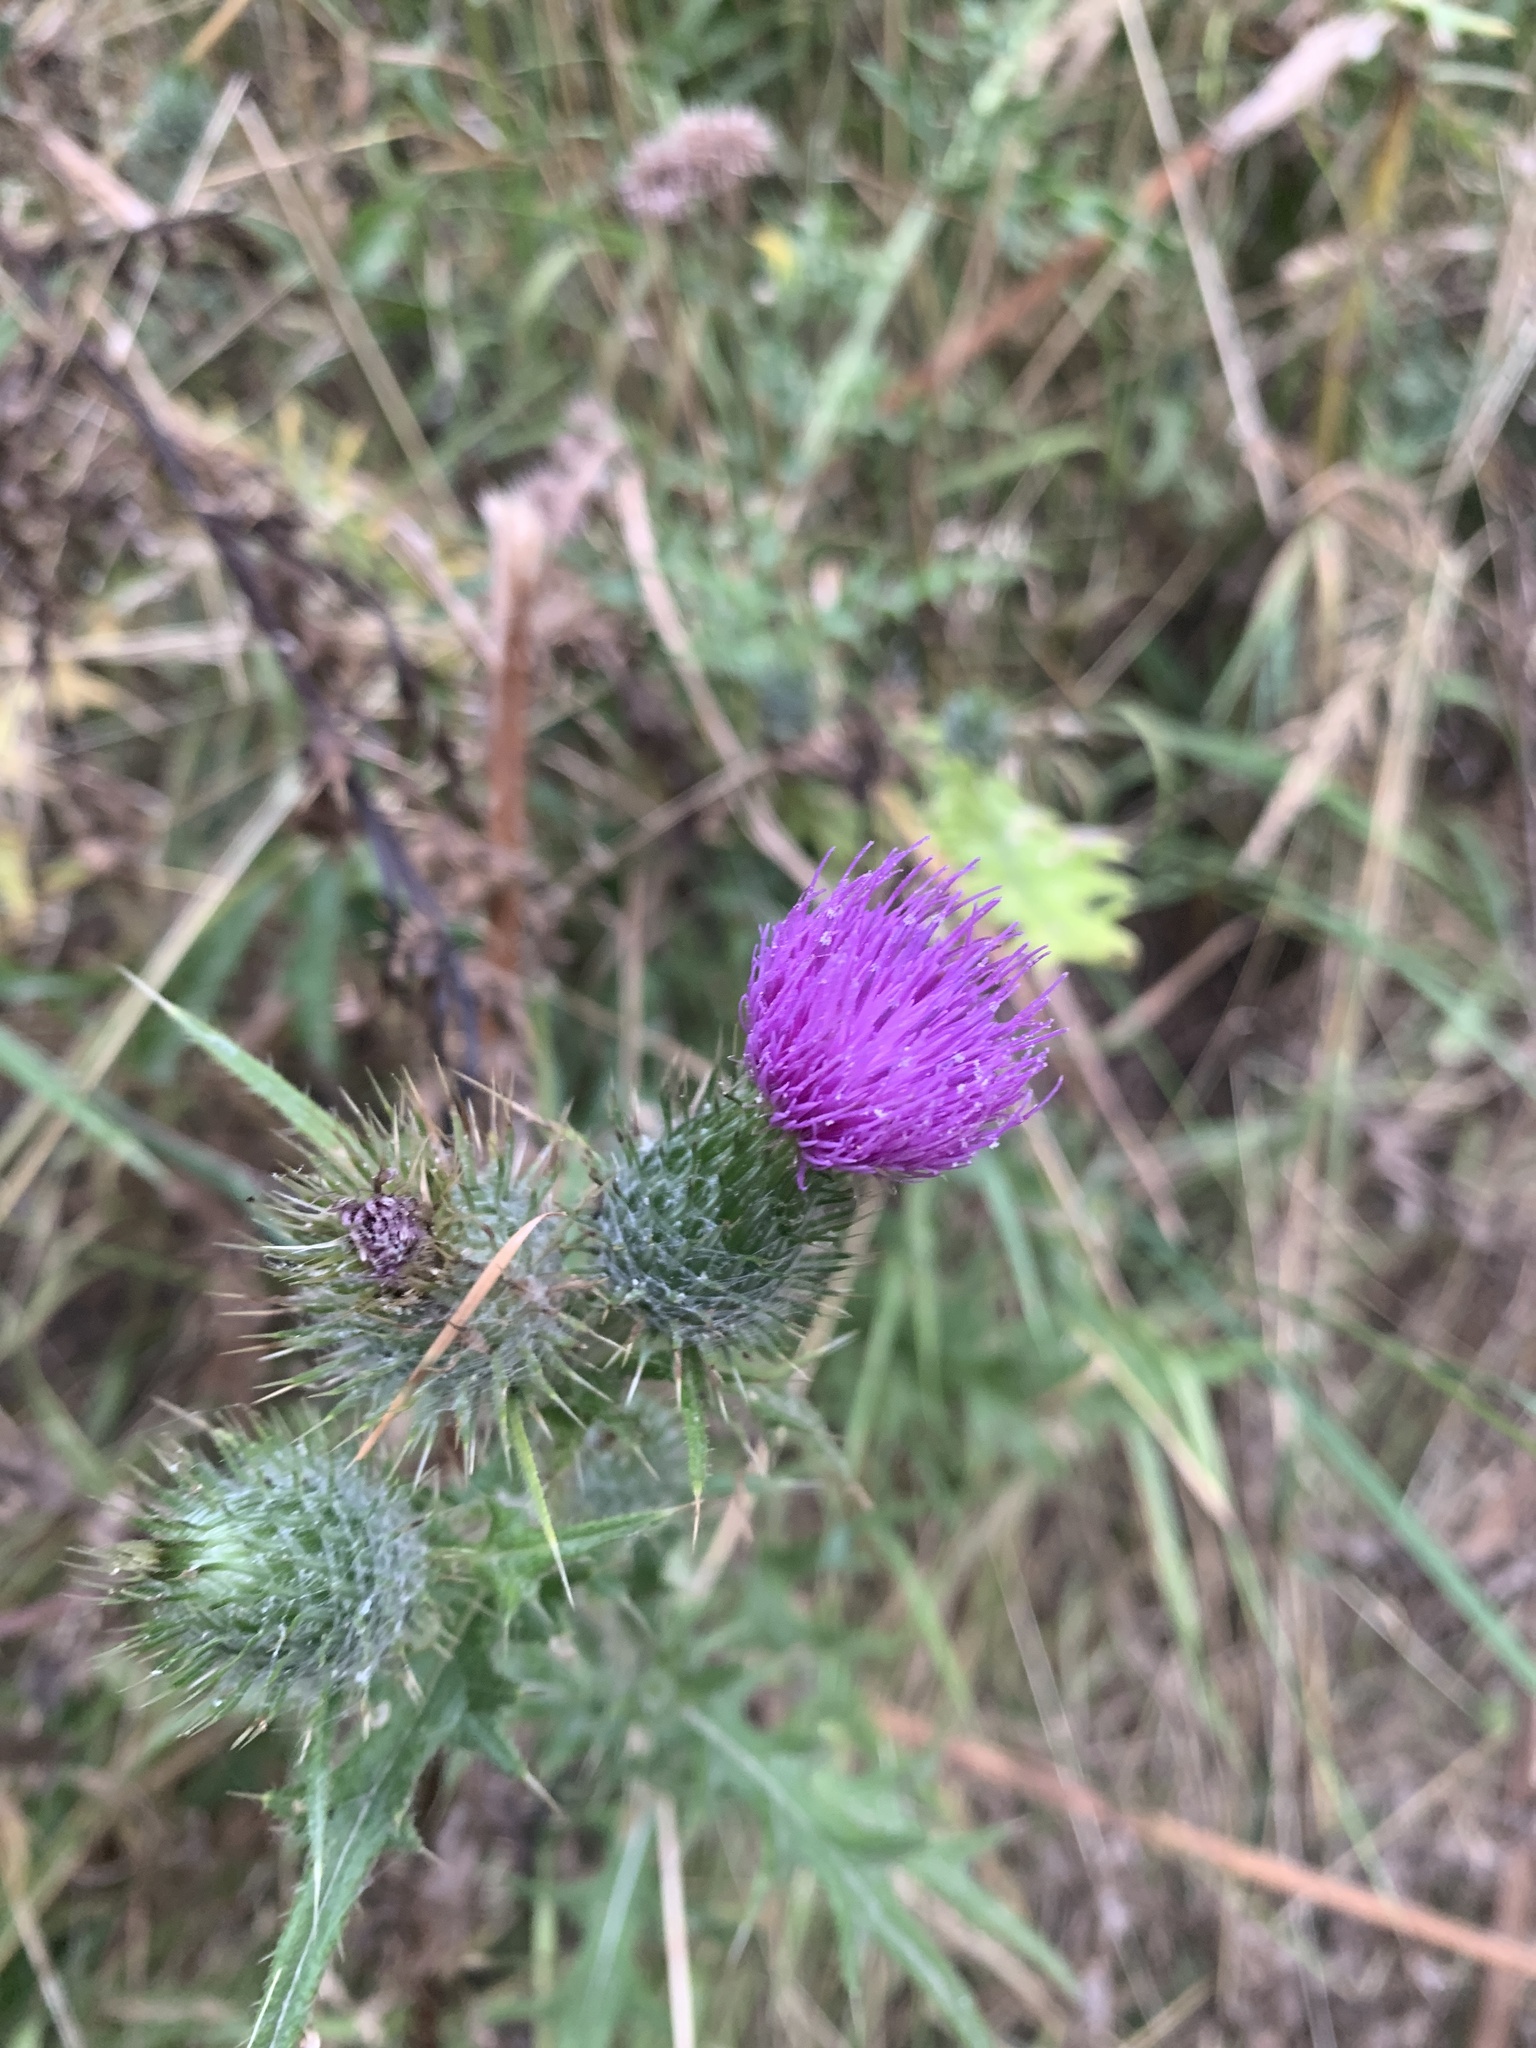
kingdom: Plantae
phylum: Tracheophyta
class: Magnoliopsida
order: Asterales
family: Asteraceae
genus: Cirsium
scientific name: Cirsium vulgare
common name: Bull thistle
